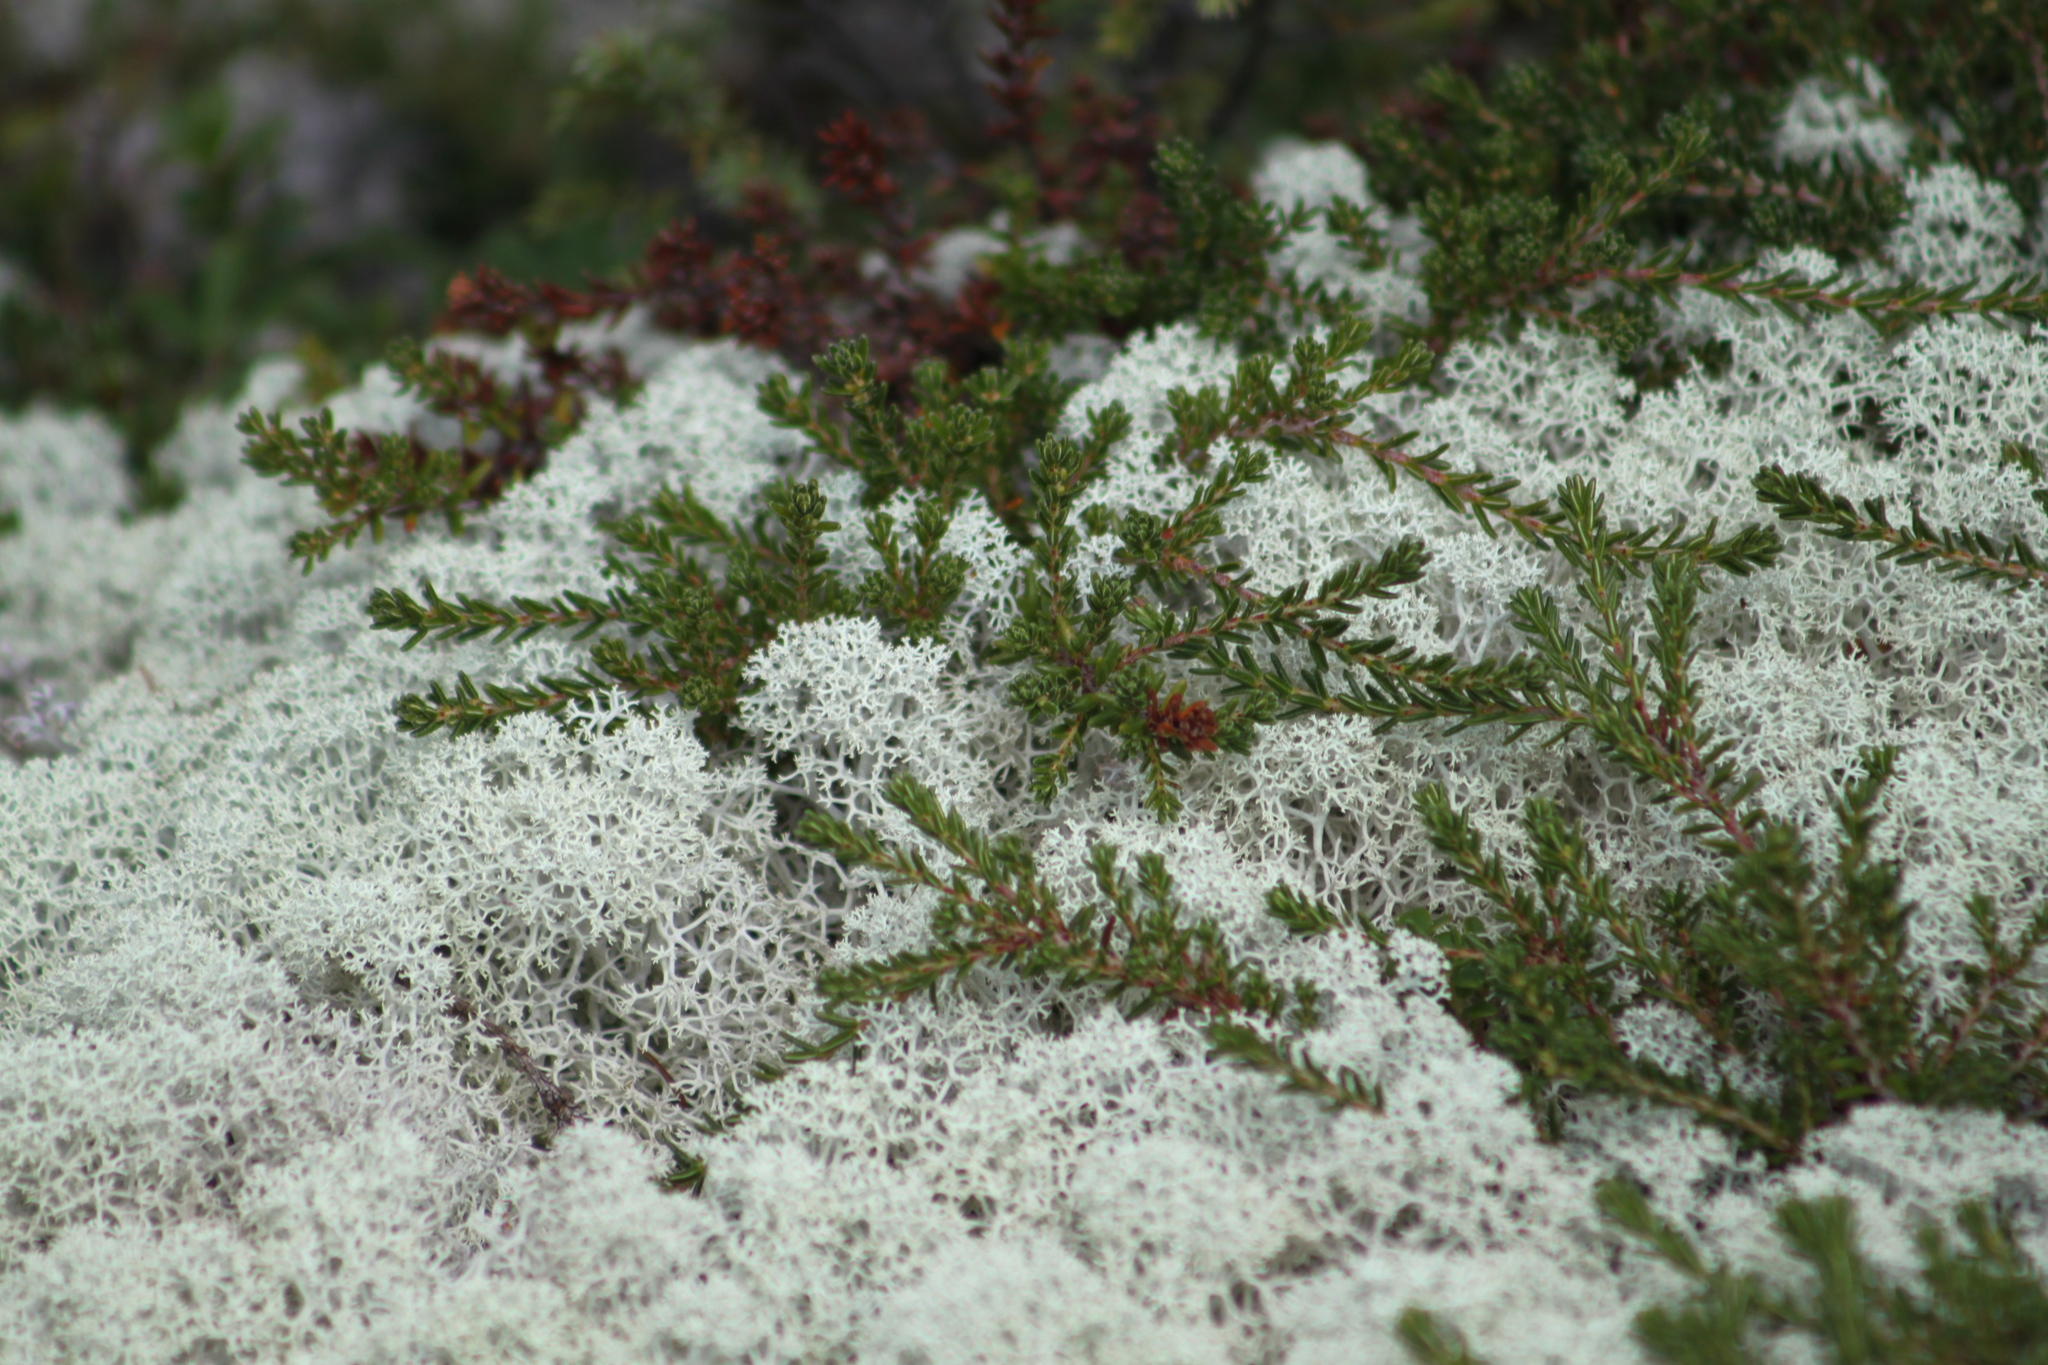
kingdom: Fungi
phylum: Ascomycota
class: Lecanoromycetes
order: Lecanorales
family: Cladoniaceae
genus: Cladonia
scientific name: Cladonia arbuscula
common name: Reindeer lichen
